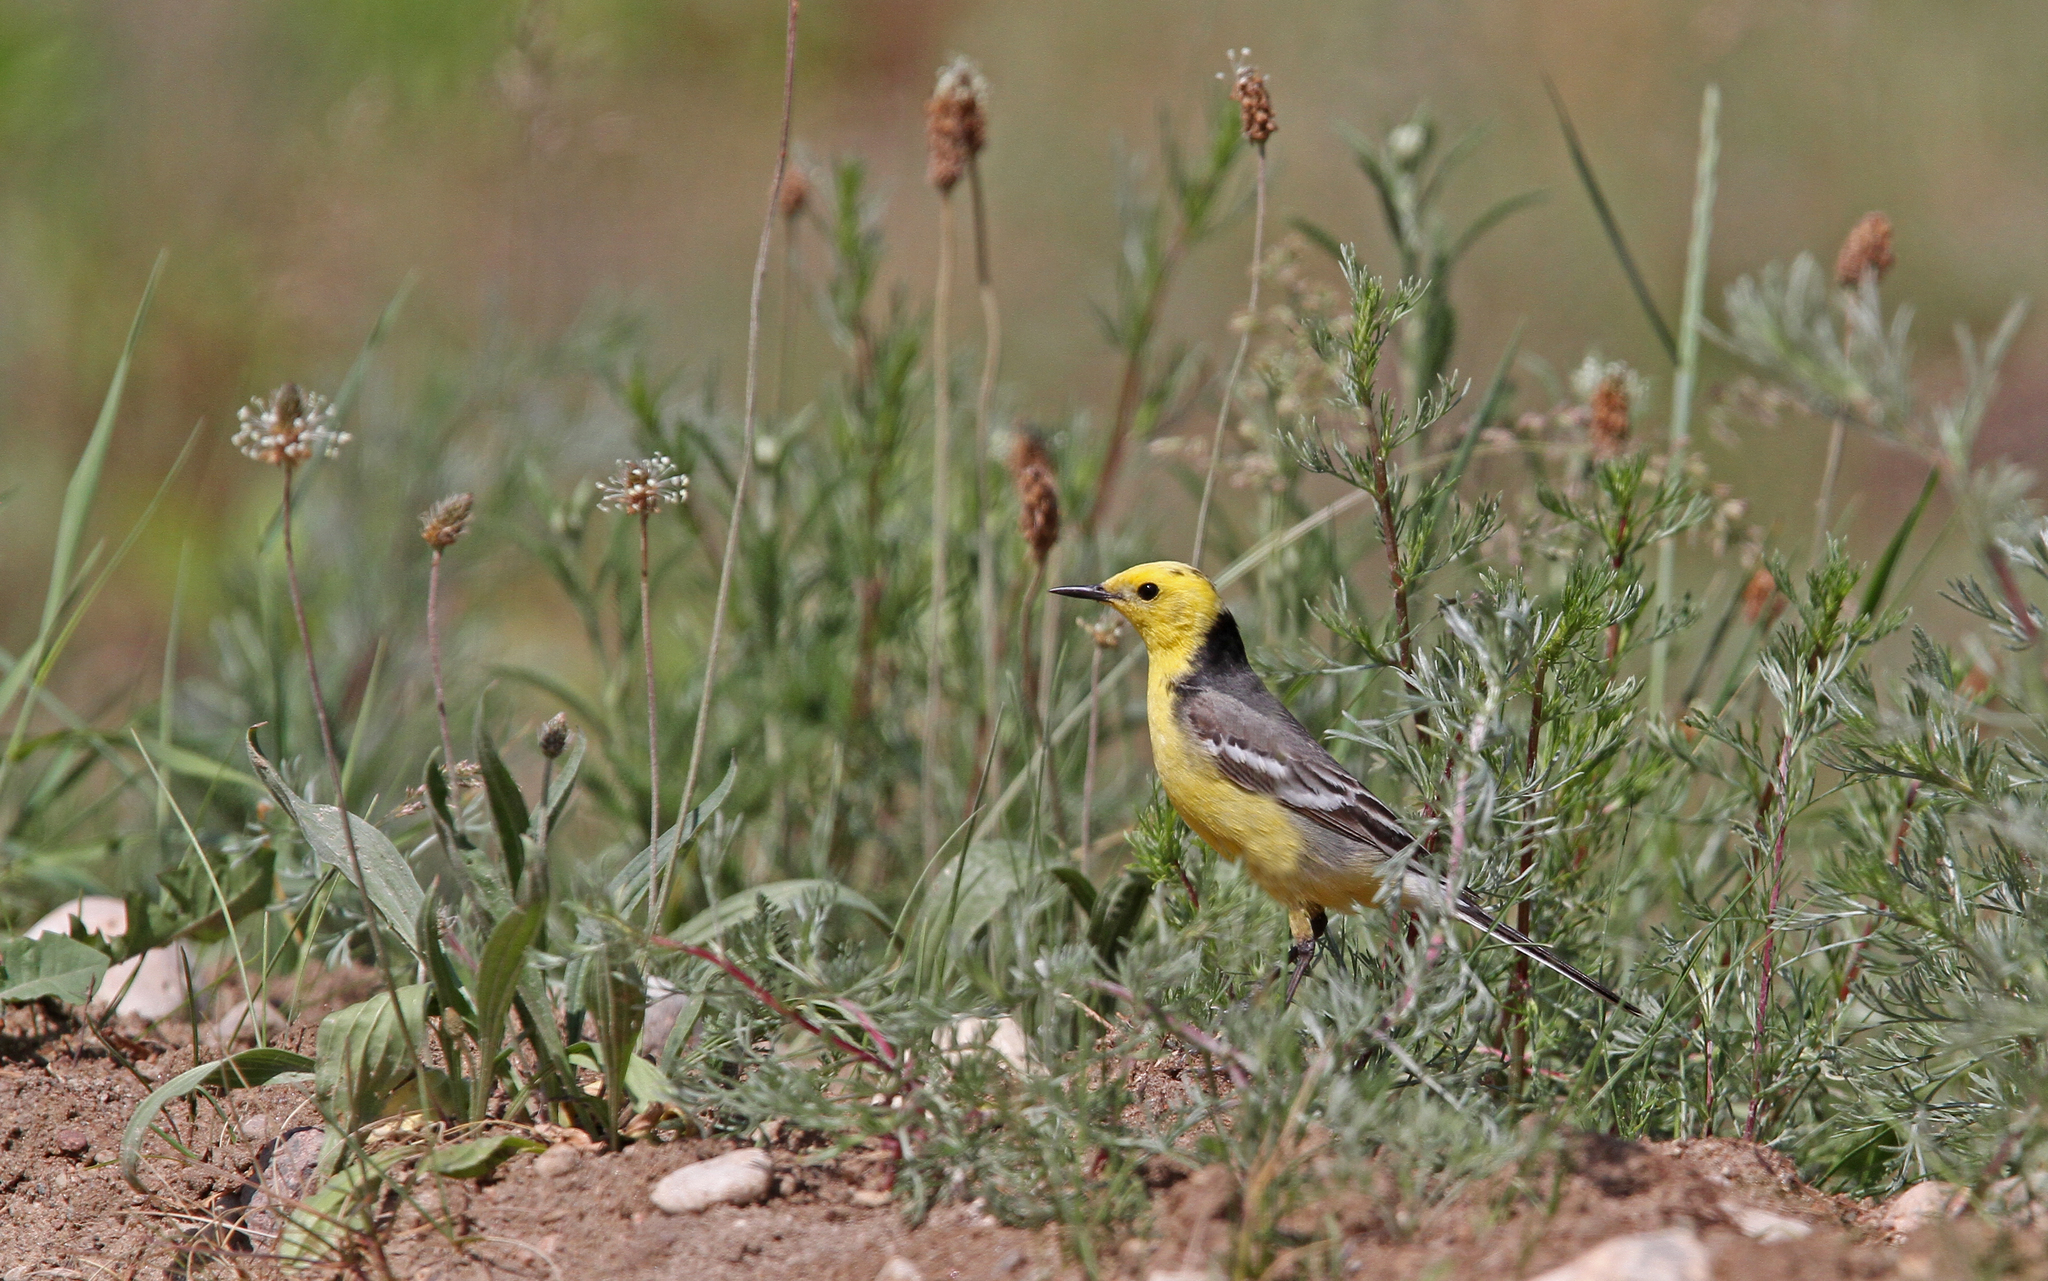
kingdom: Animalia
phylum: Chordata
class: Aves
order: Passeriformes
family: Motacillidae
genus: Motacilla
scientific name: Motacilla citreola
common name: Citrine wagtail
